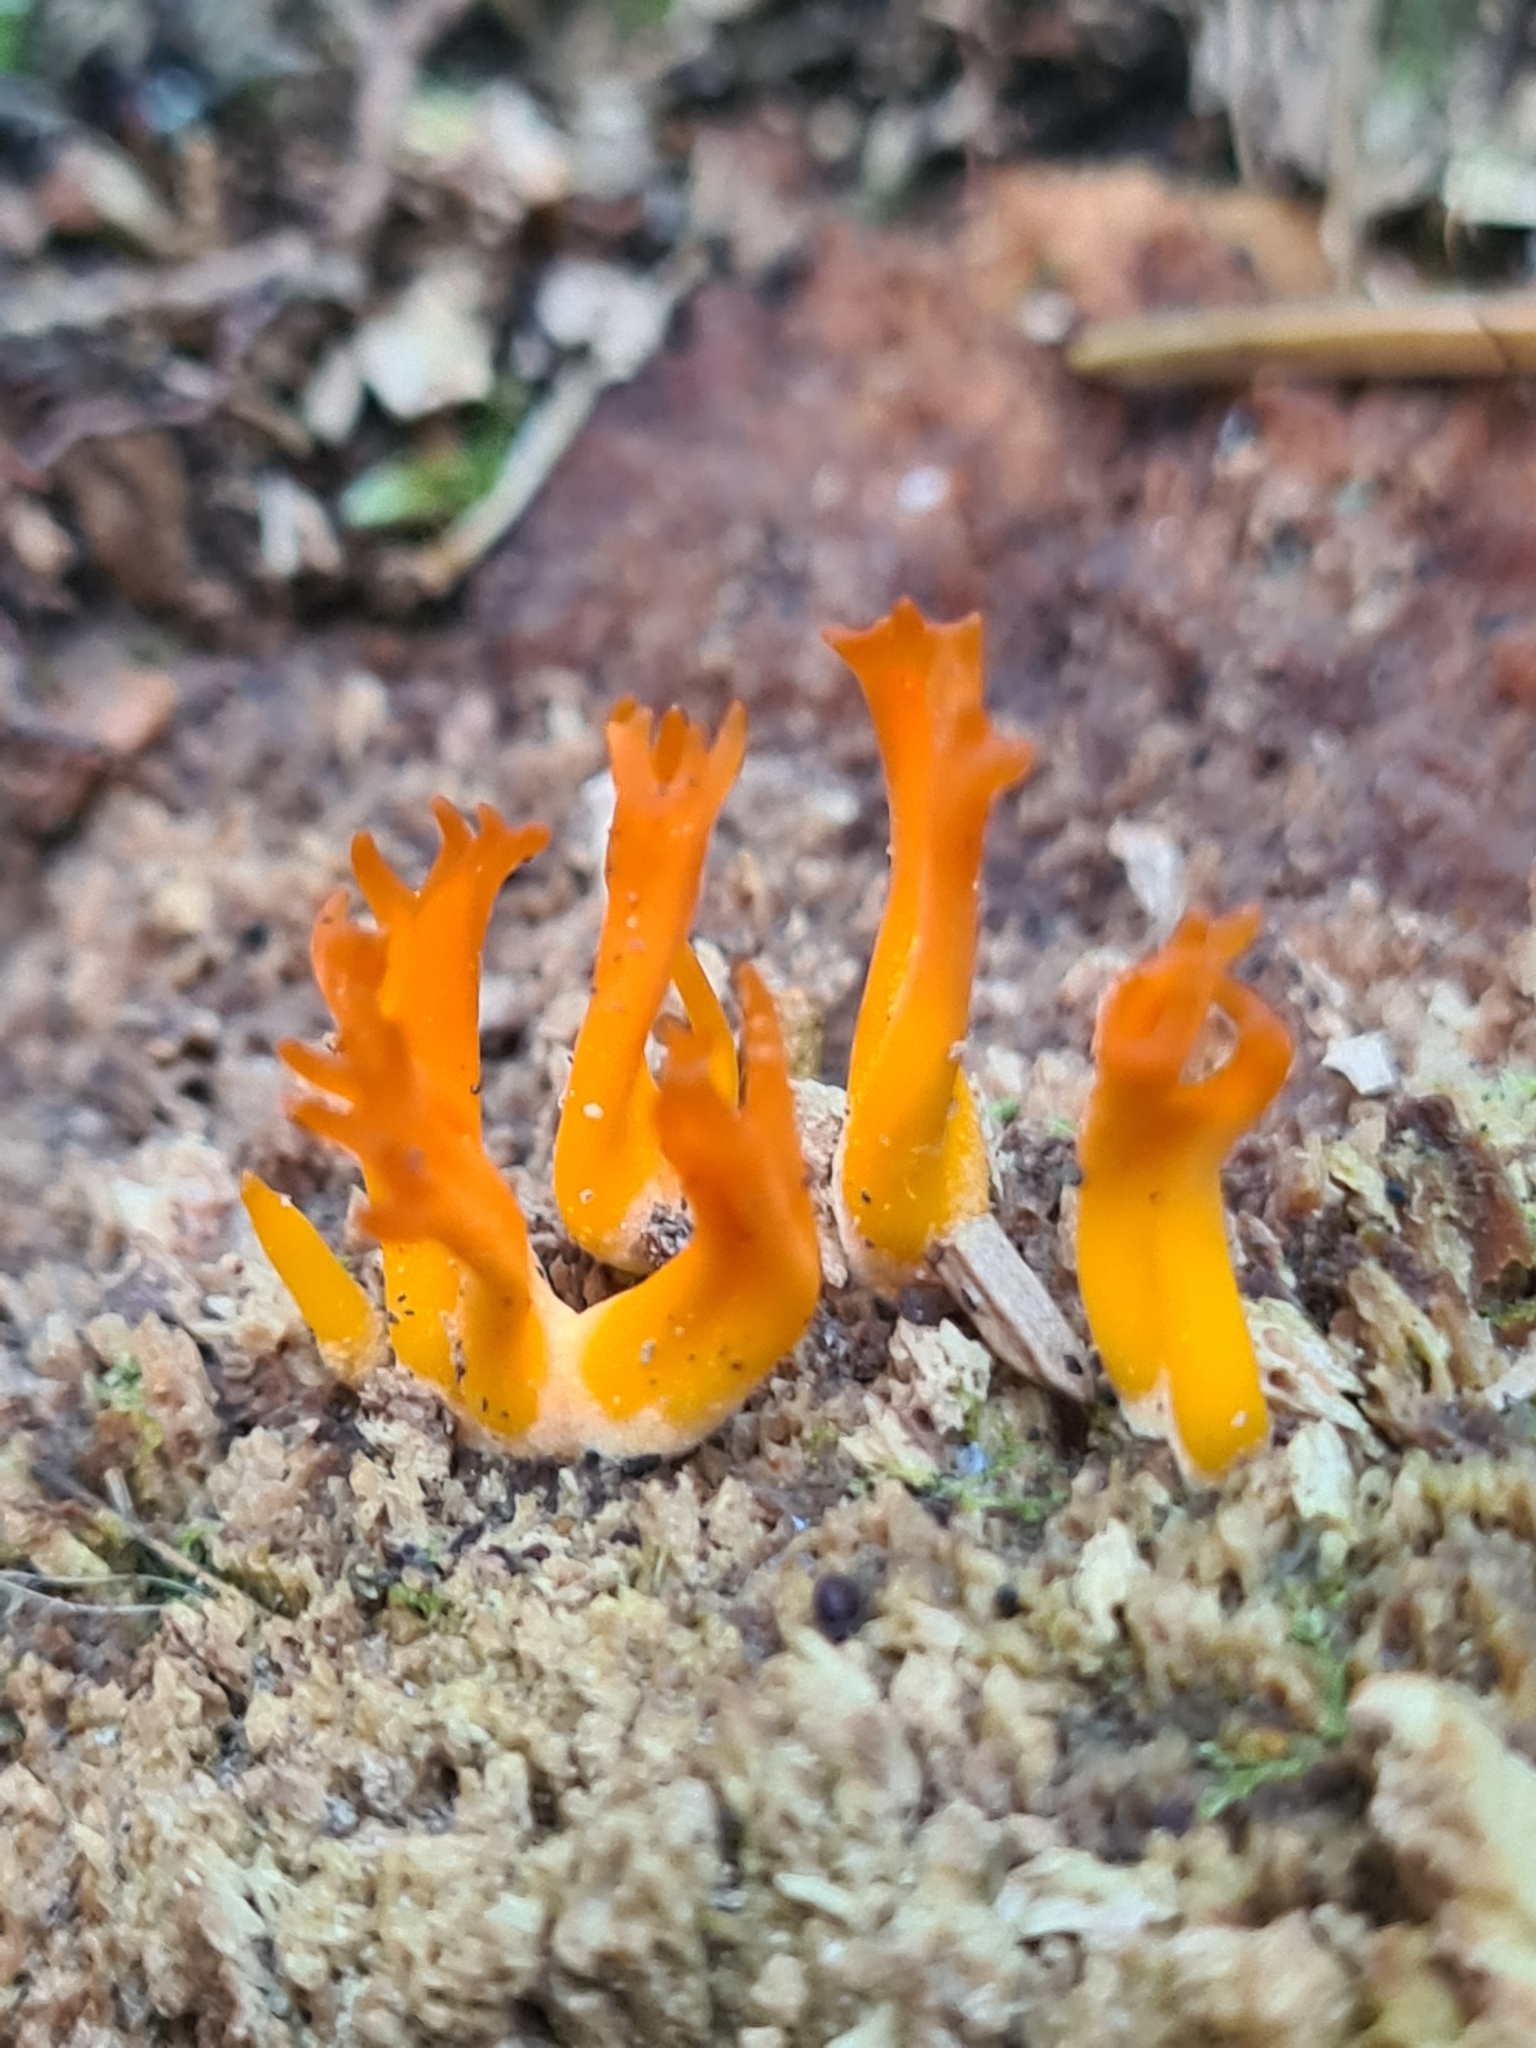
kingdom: Fungi
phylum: Basidiomycota
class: Dacrymycetes
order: Dacrymycetales
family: Dacrymycetaceae
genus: Calocera
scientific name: Calocera viscosa
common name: Yellow stagshorn
